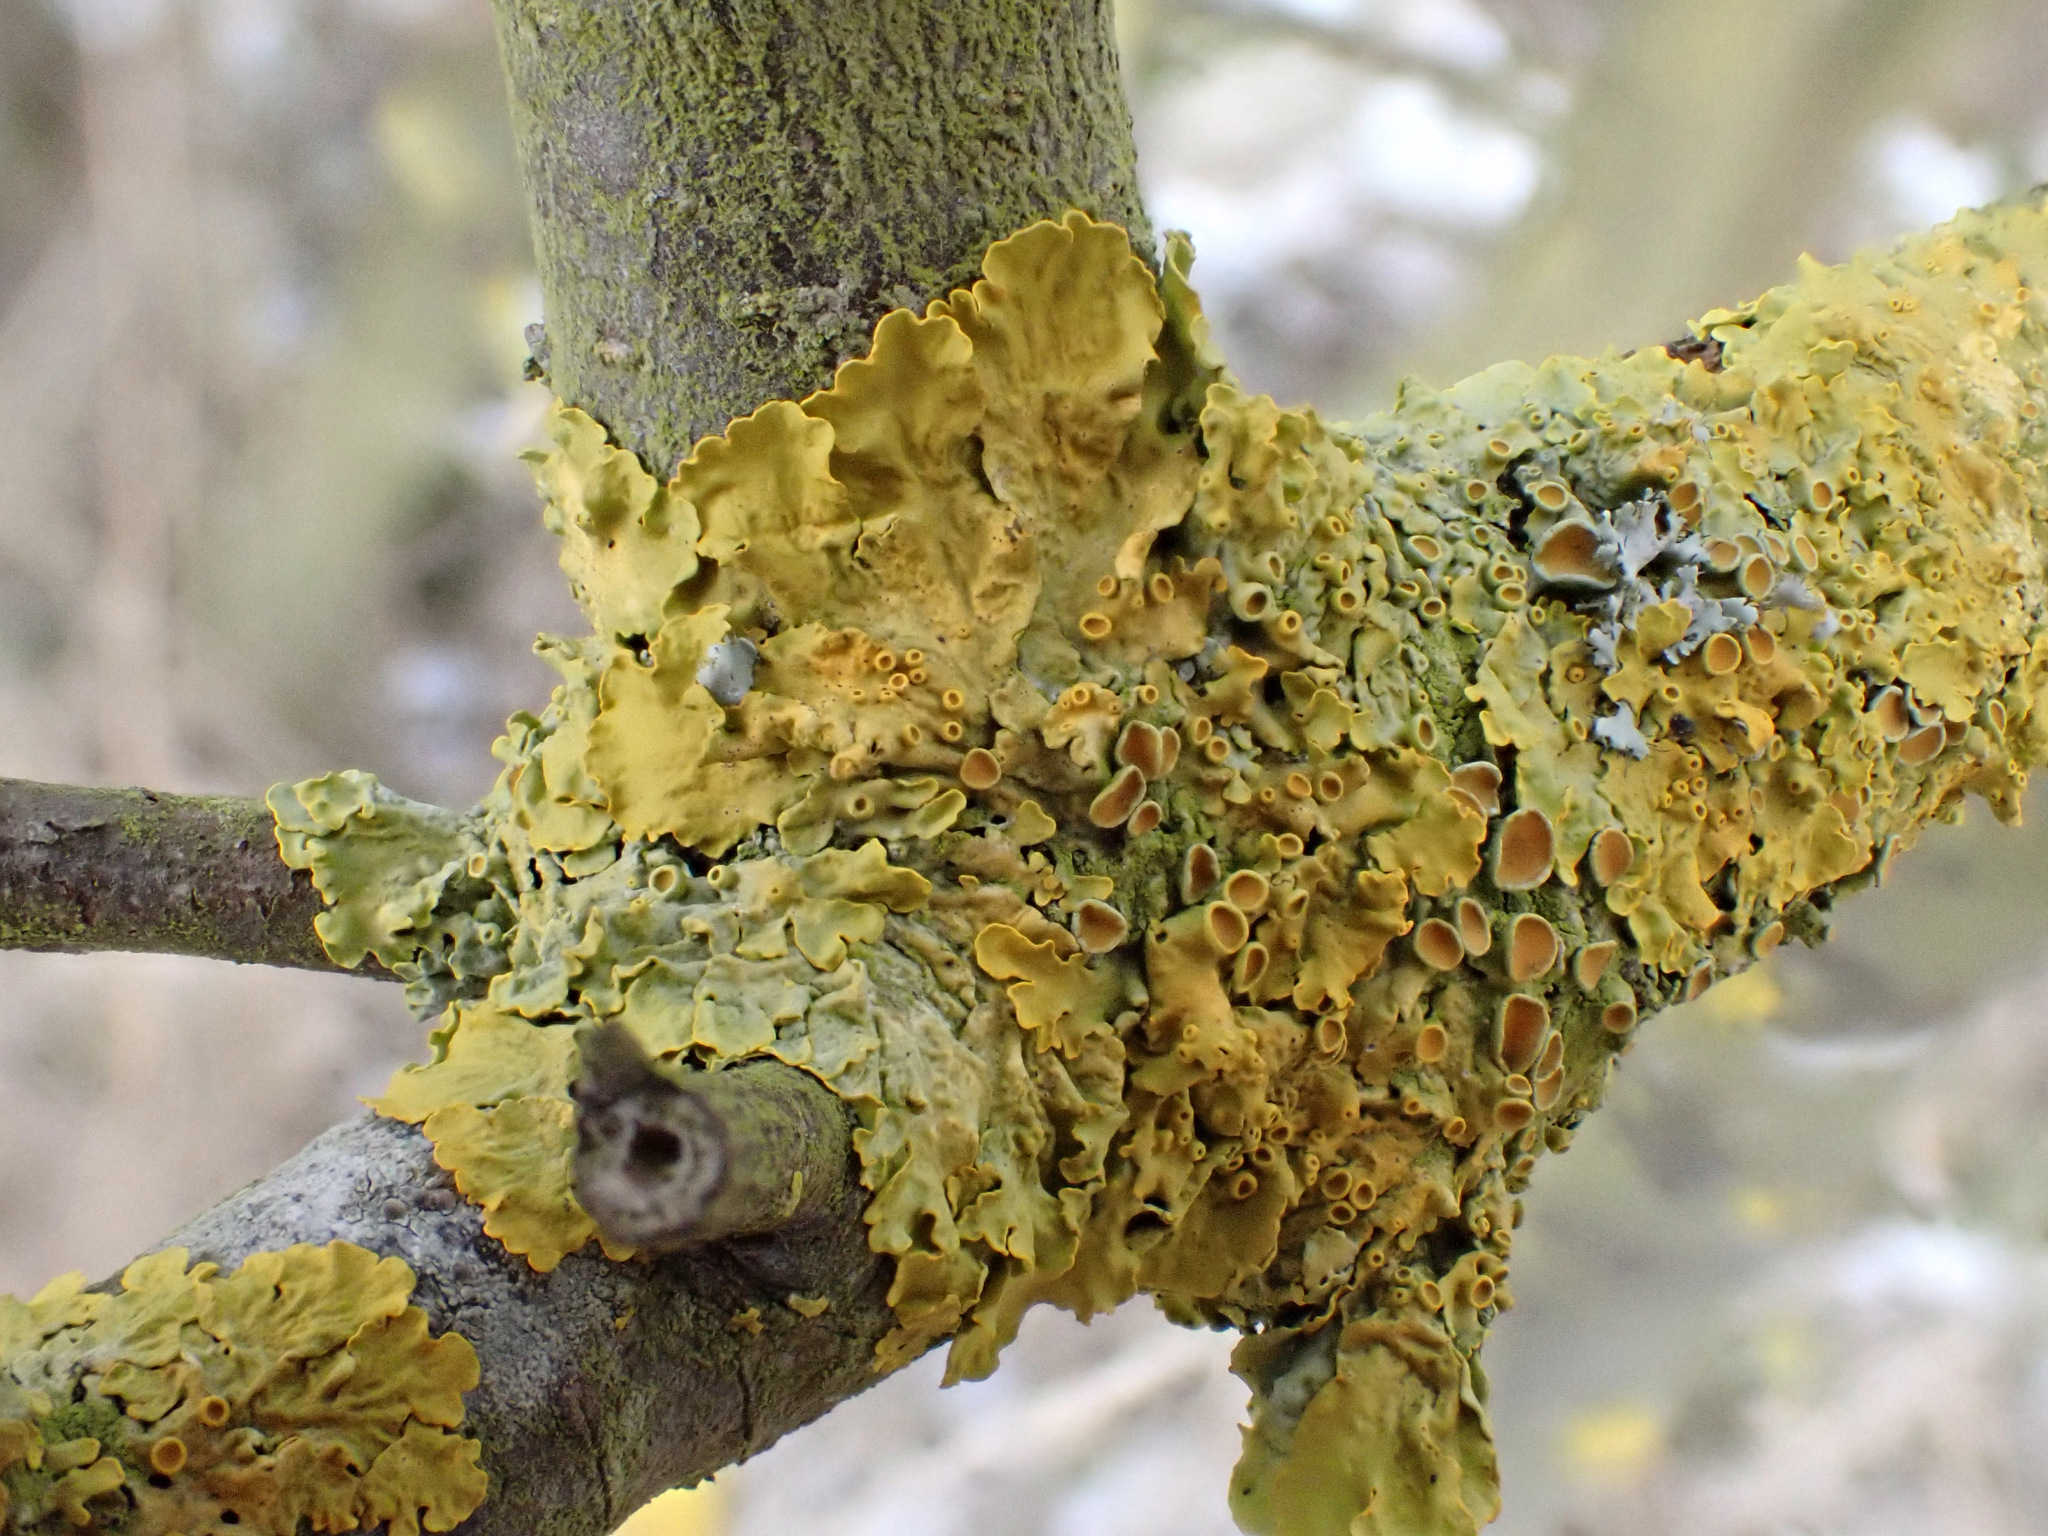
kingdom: Fungi
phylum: Ascomycota
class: Lecanoromycetes
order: Teloschistales
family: Teloschistaceae
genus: Xanthoria
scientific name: Xanthoria parietina
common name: Common orange lichen
